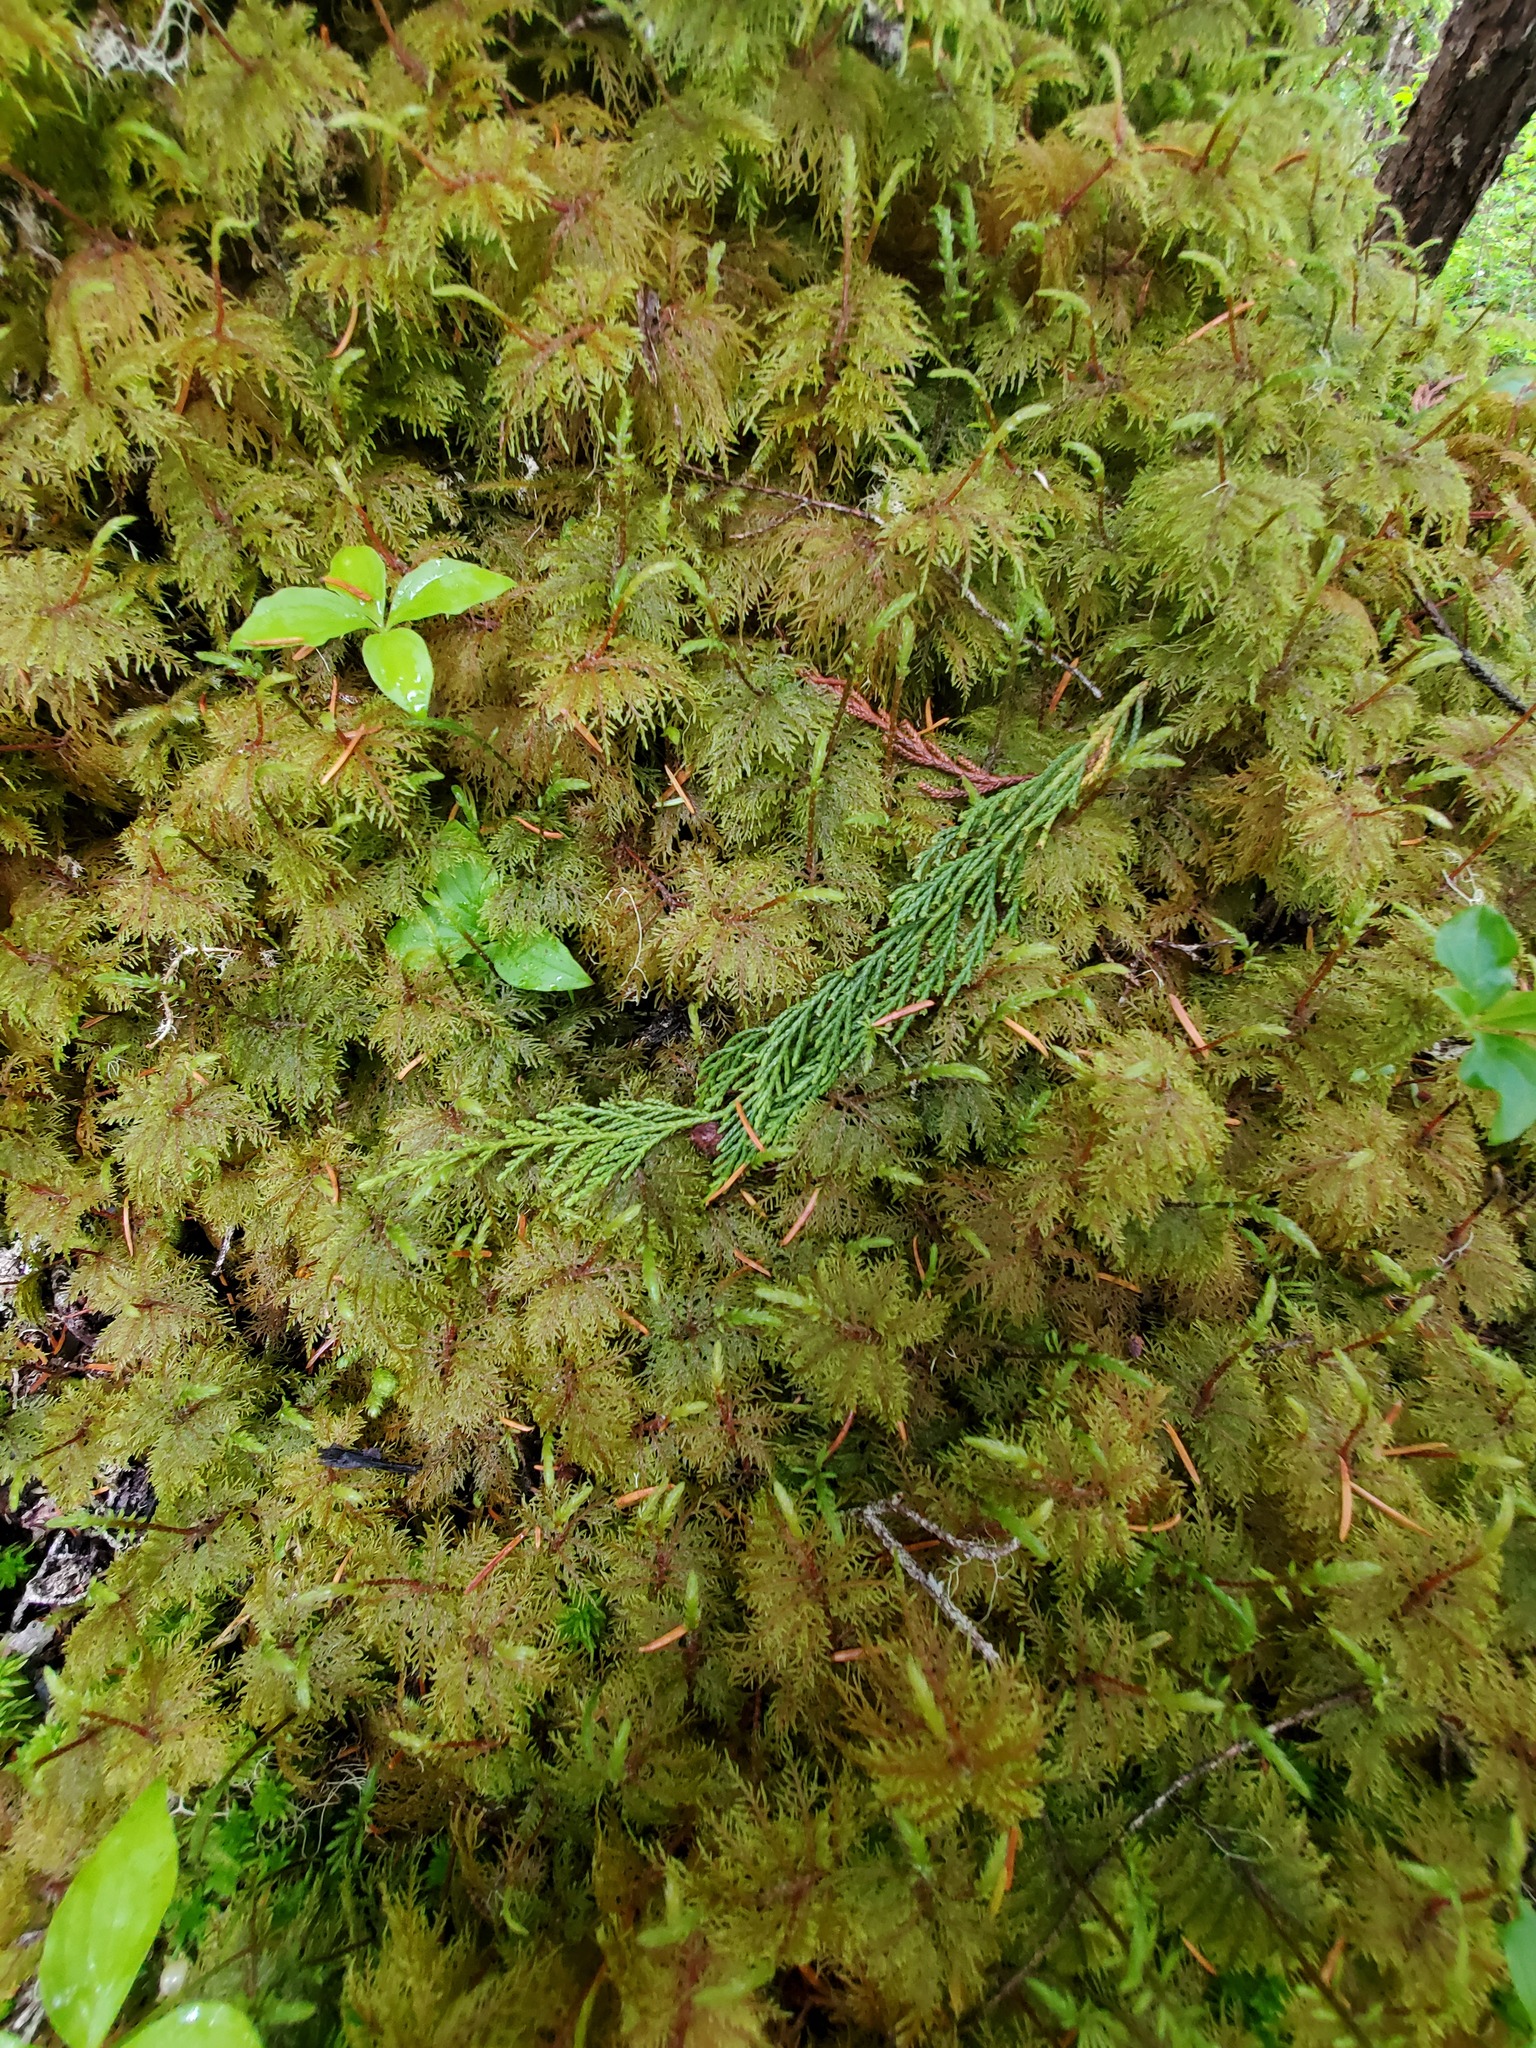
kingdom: Plantae
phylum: Bryophyta
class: Bryopsida
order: Hypnales
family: Hylocomiaceae
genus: Hylocomium
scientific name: Hylocomium splendens
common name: Stairstep moss
